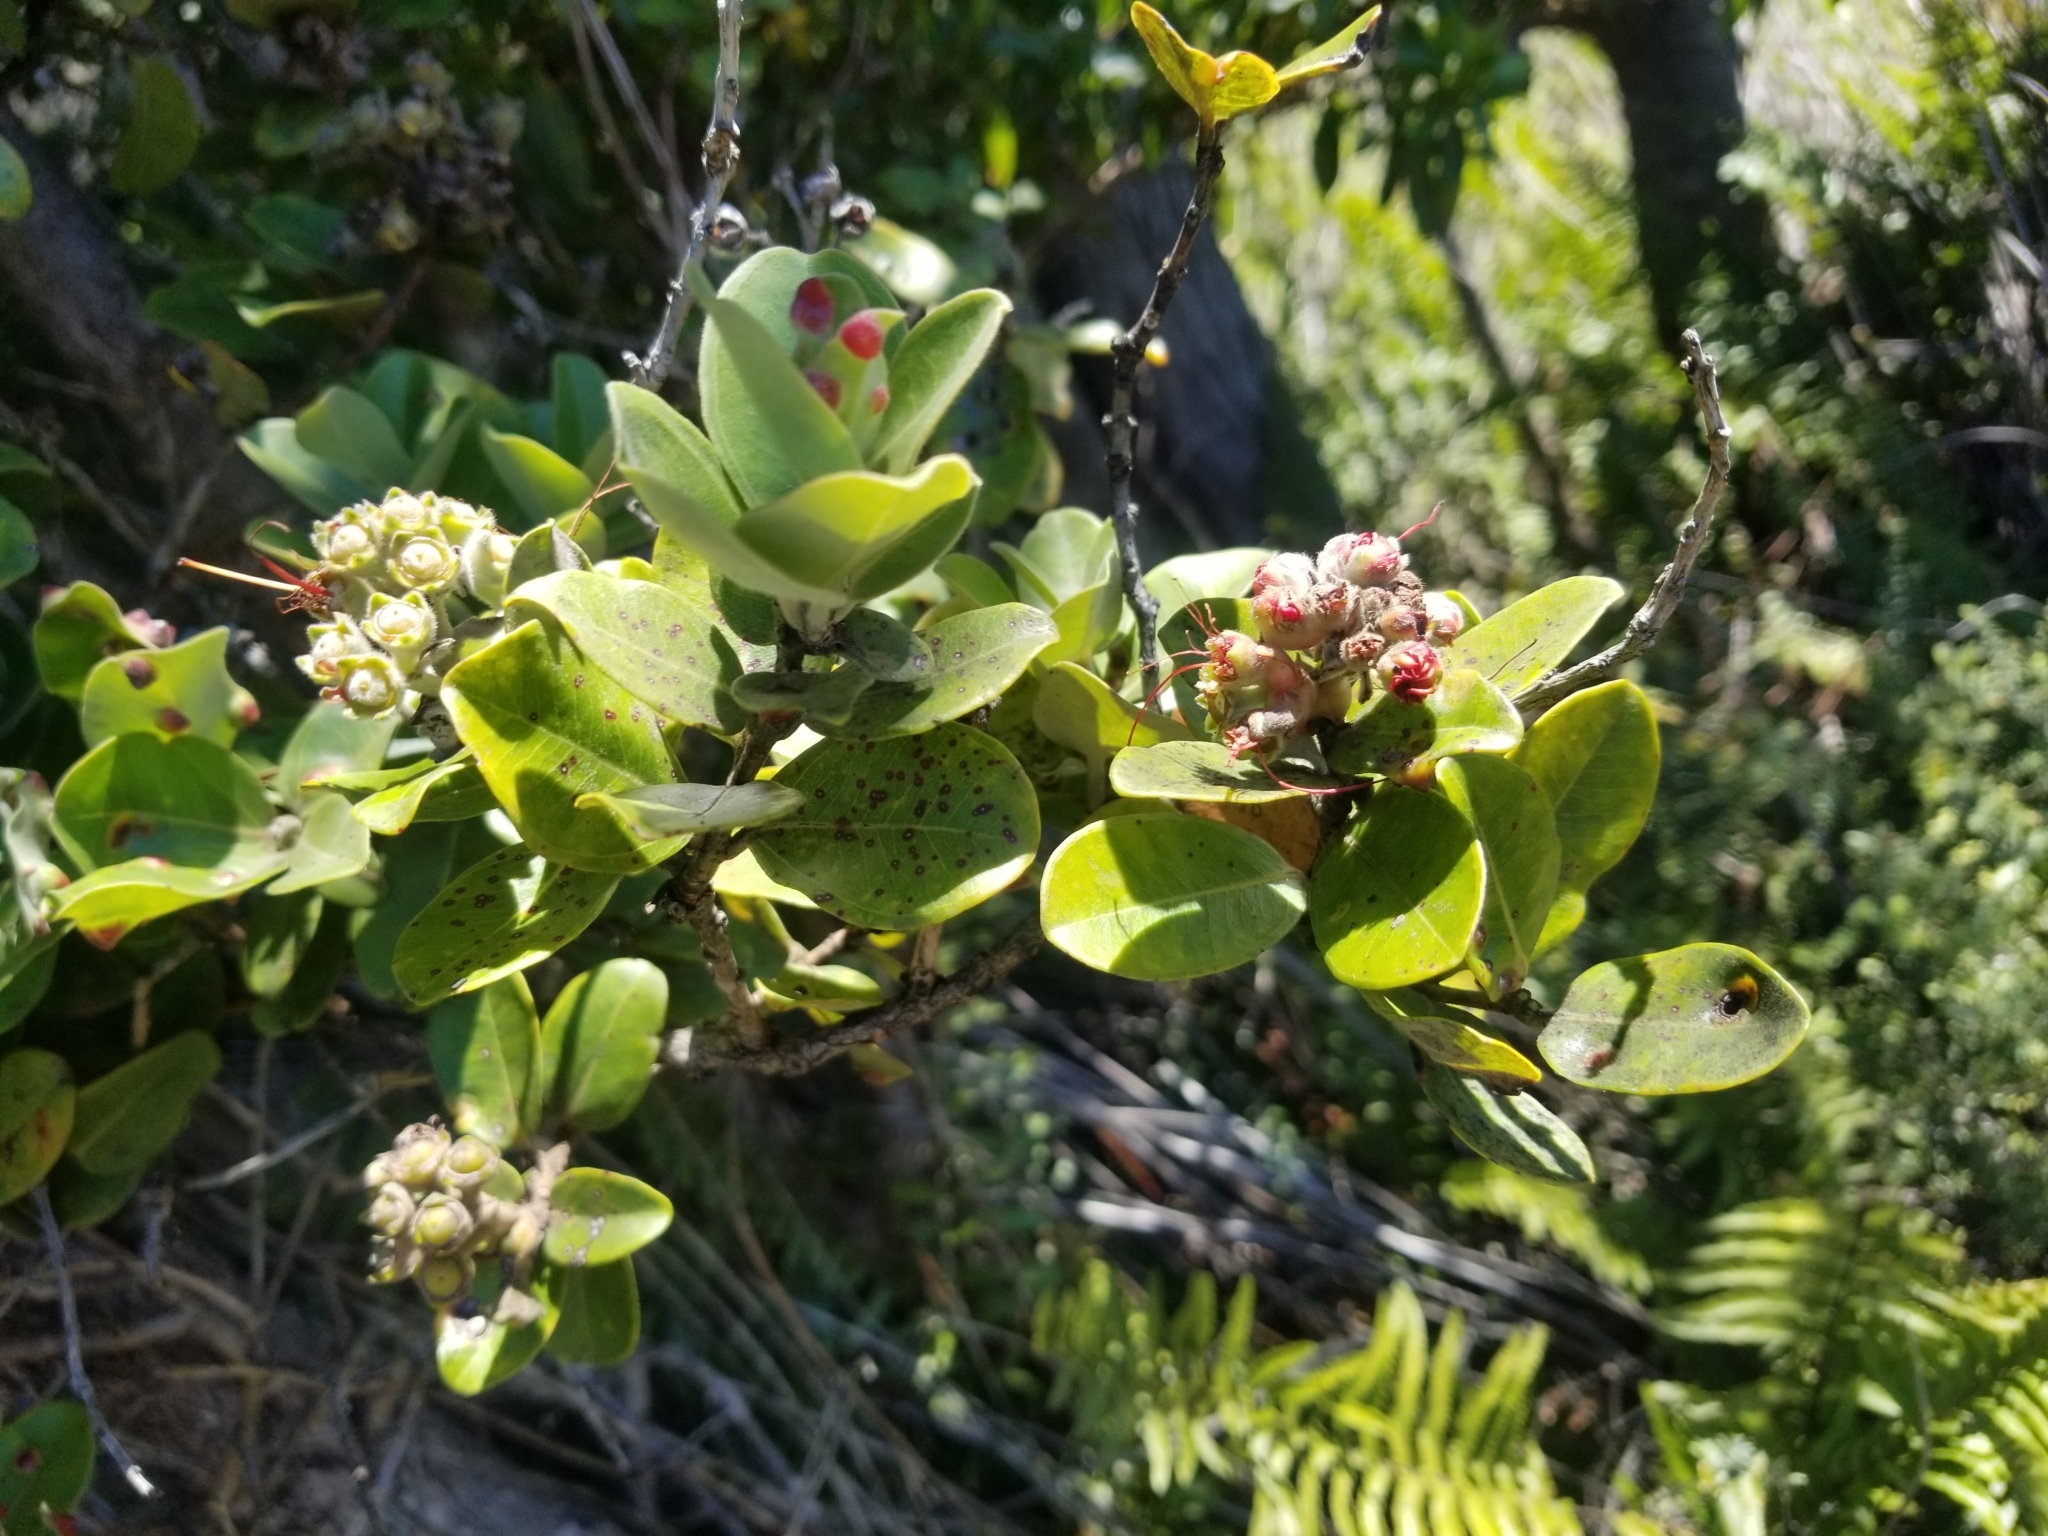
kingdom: Plantae
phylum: Tracheophyta
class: Magnoliopsida
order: Myrtales
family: Myrtaceae
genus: Metrosideros
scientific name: Metrosideros polymorpha
